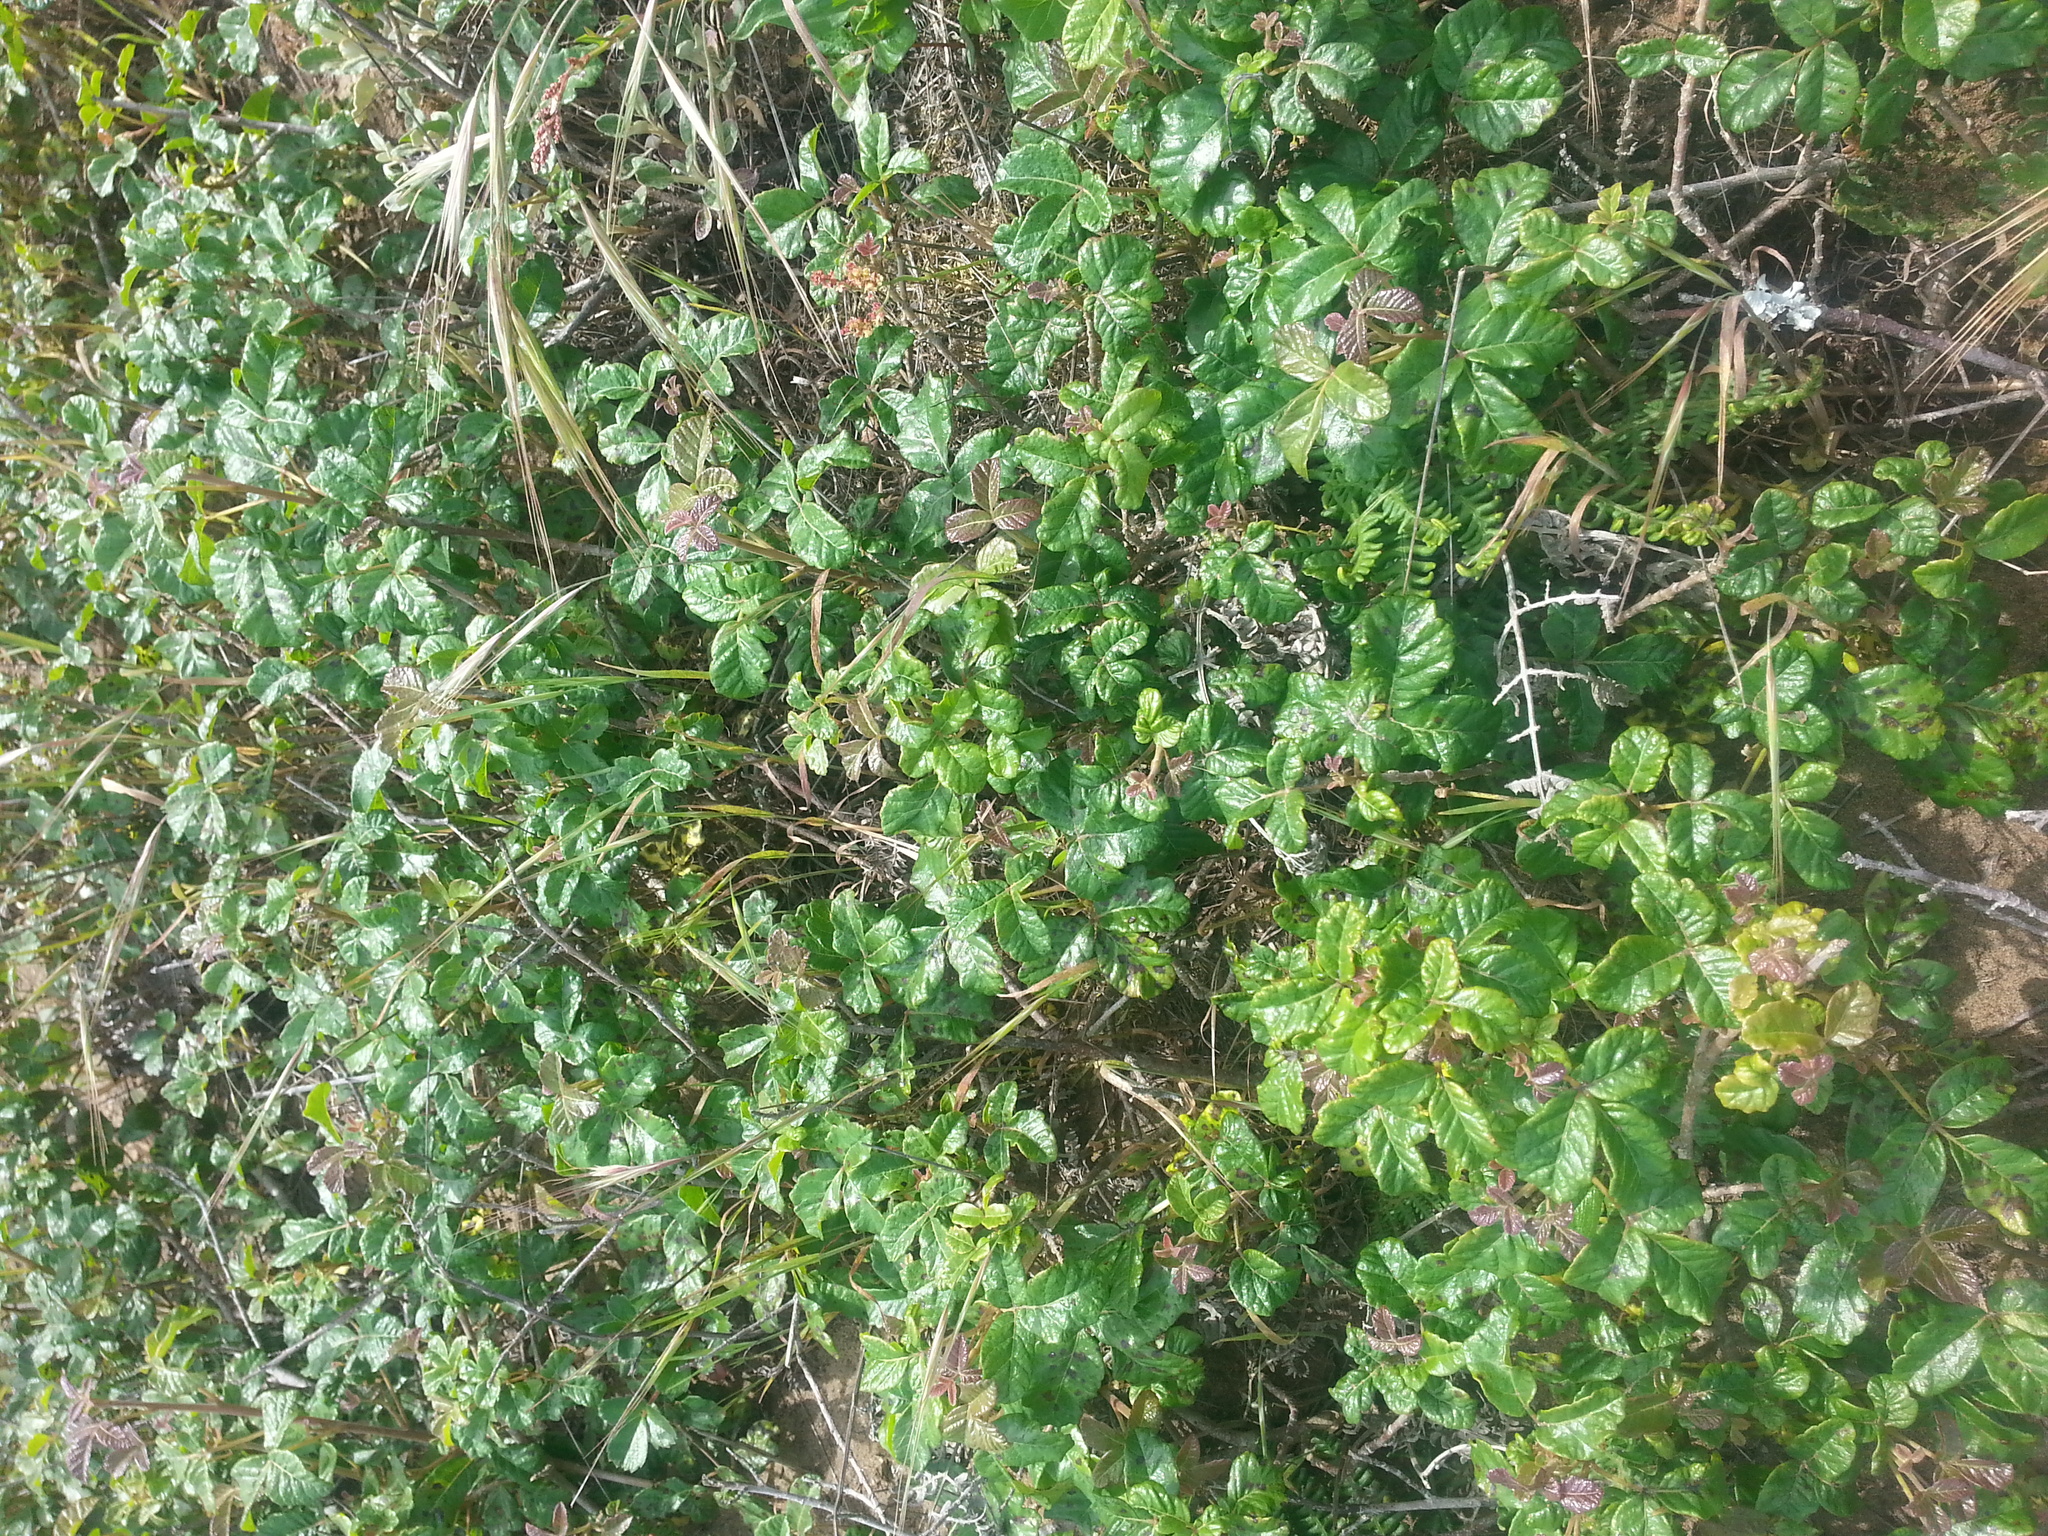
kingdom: Plantae
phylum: Tracheophyta
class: Magnoliopsida
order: Sapindales
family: Anacardiaceae
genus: Toxicodendron
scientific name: Toxicodendron diversilobum
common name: Pacific poison-oak
